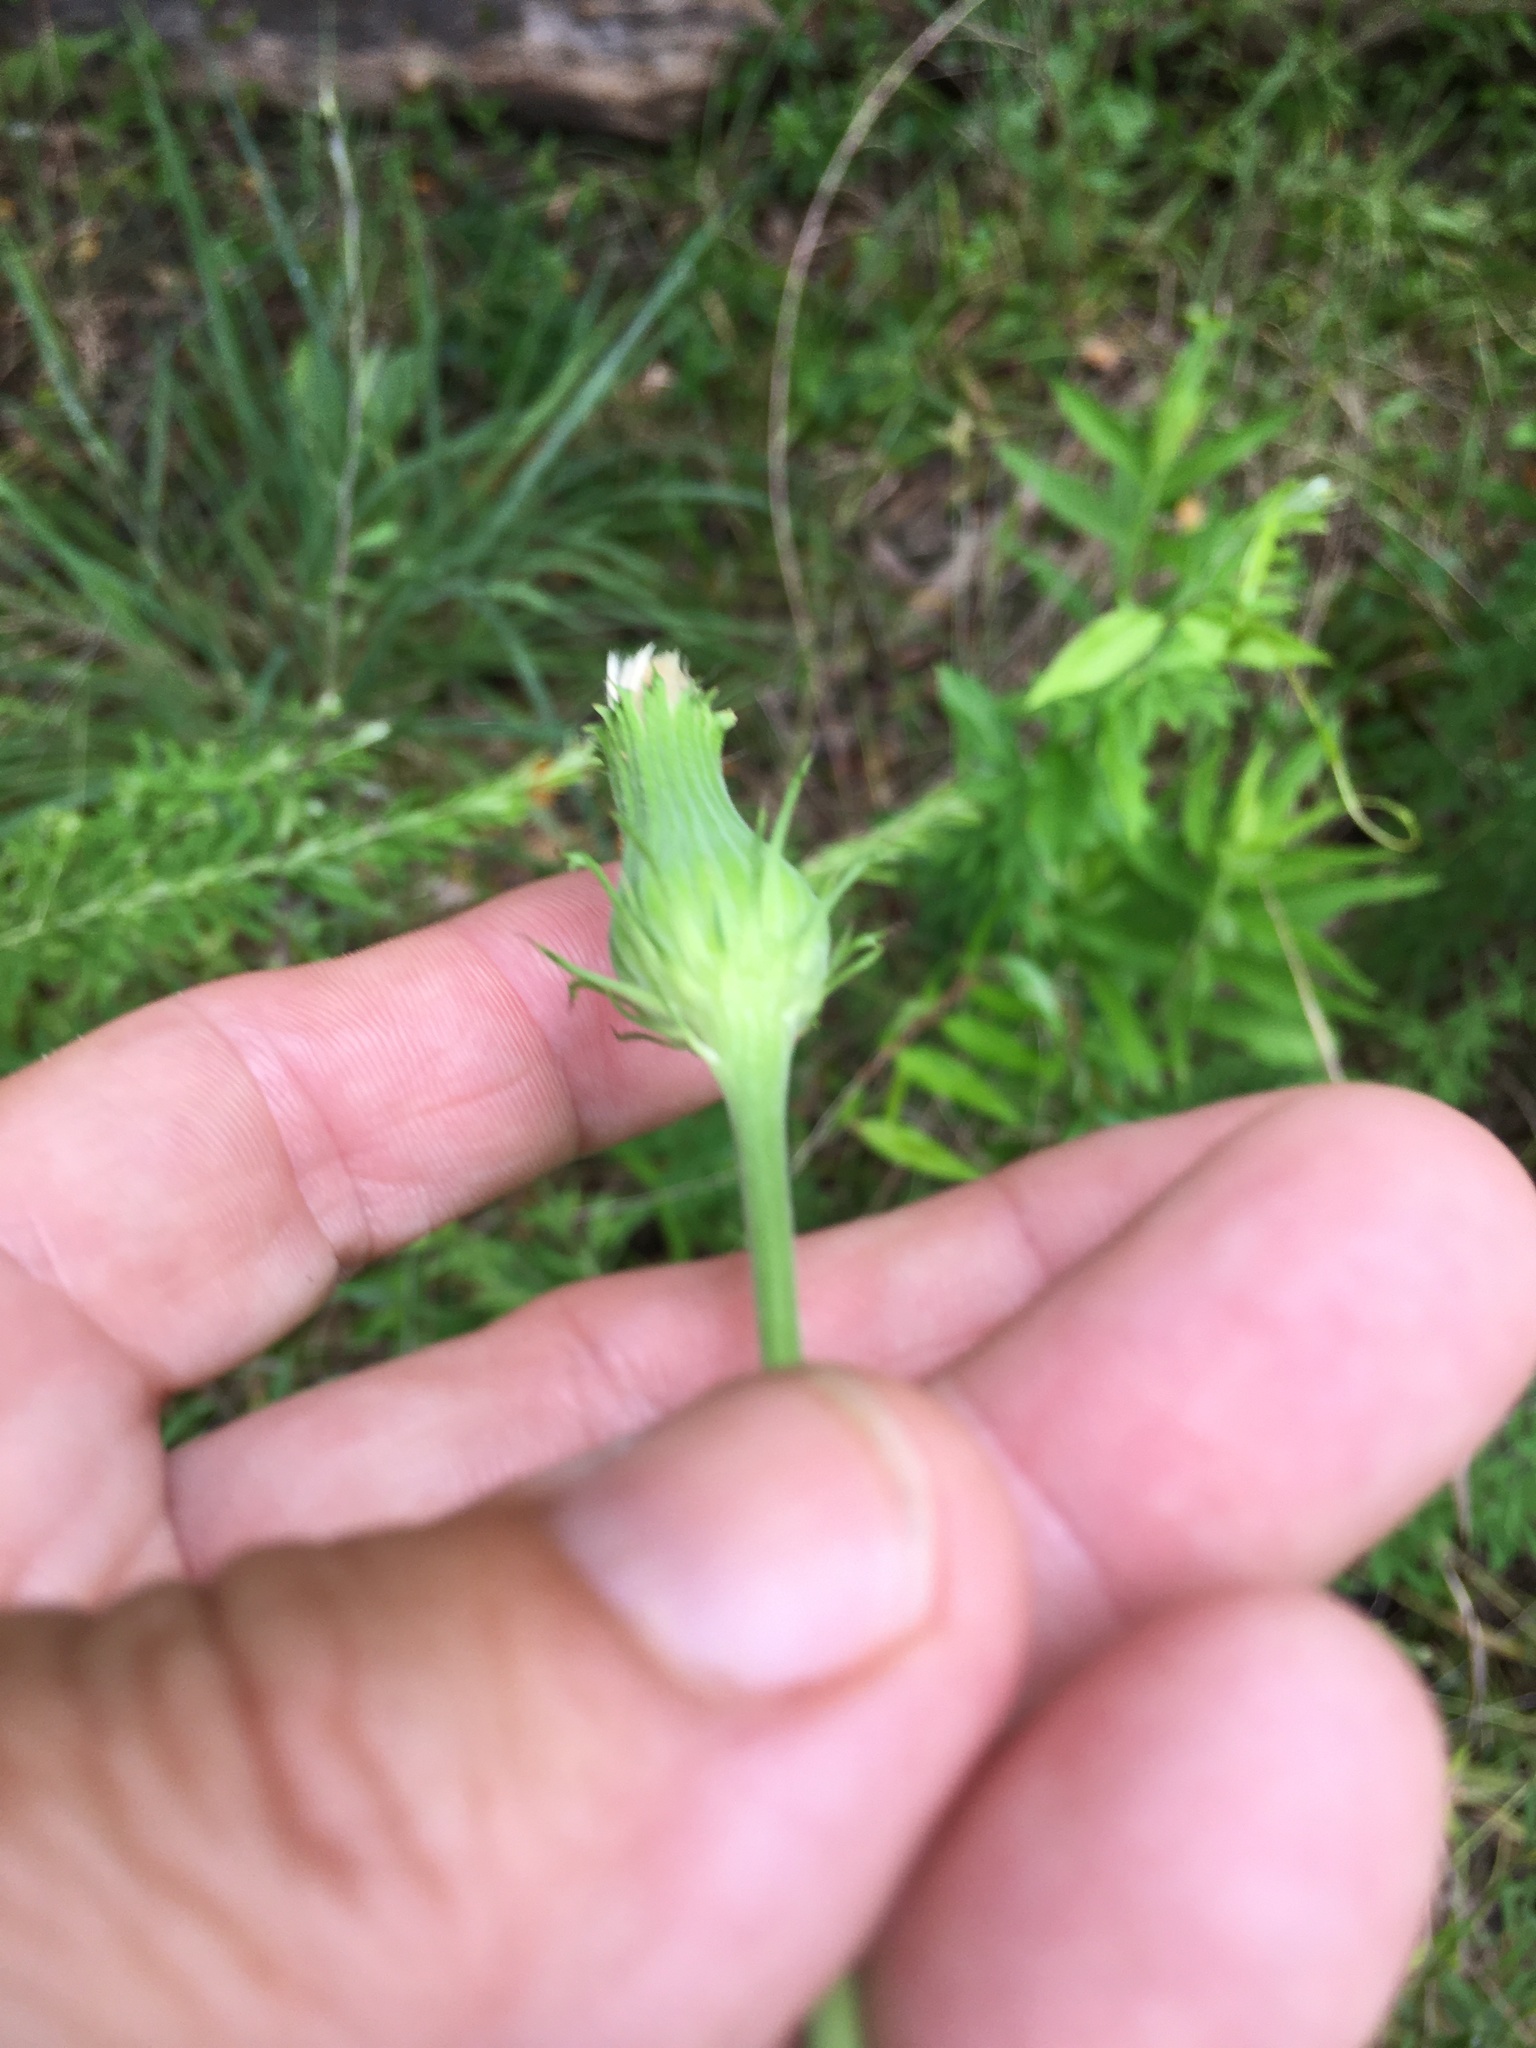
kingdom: Plantae
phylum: Tracheophyta
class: Magnoliopsida
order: Asterales
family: Asteraceae
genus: Pyrrhopappus
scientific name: Pyrrhopappus carolinianus
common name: Carolina desert-chicory
